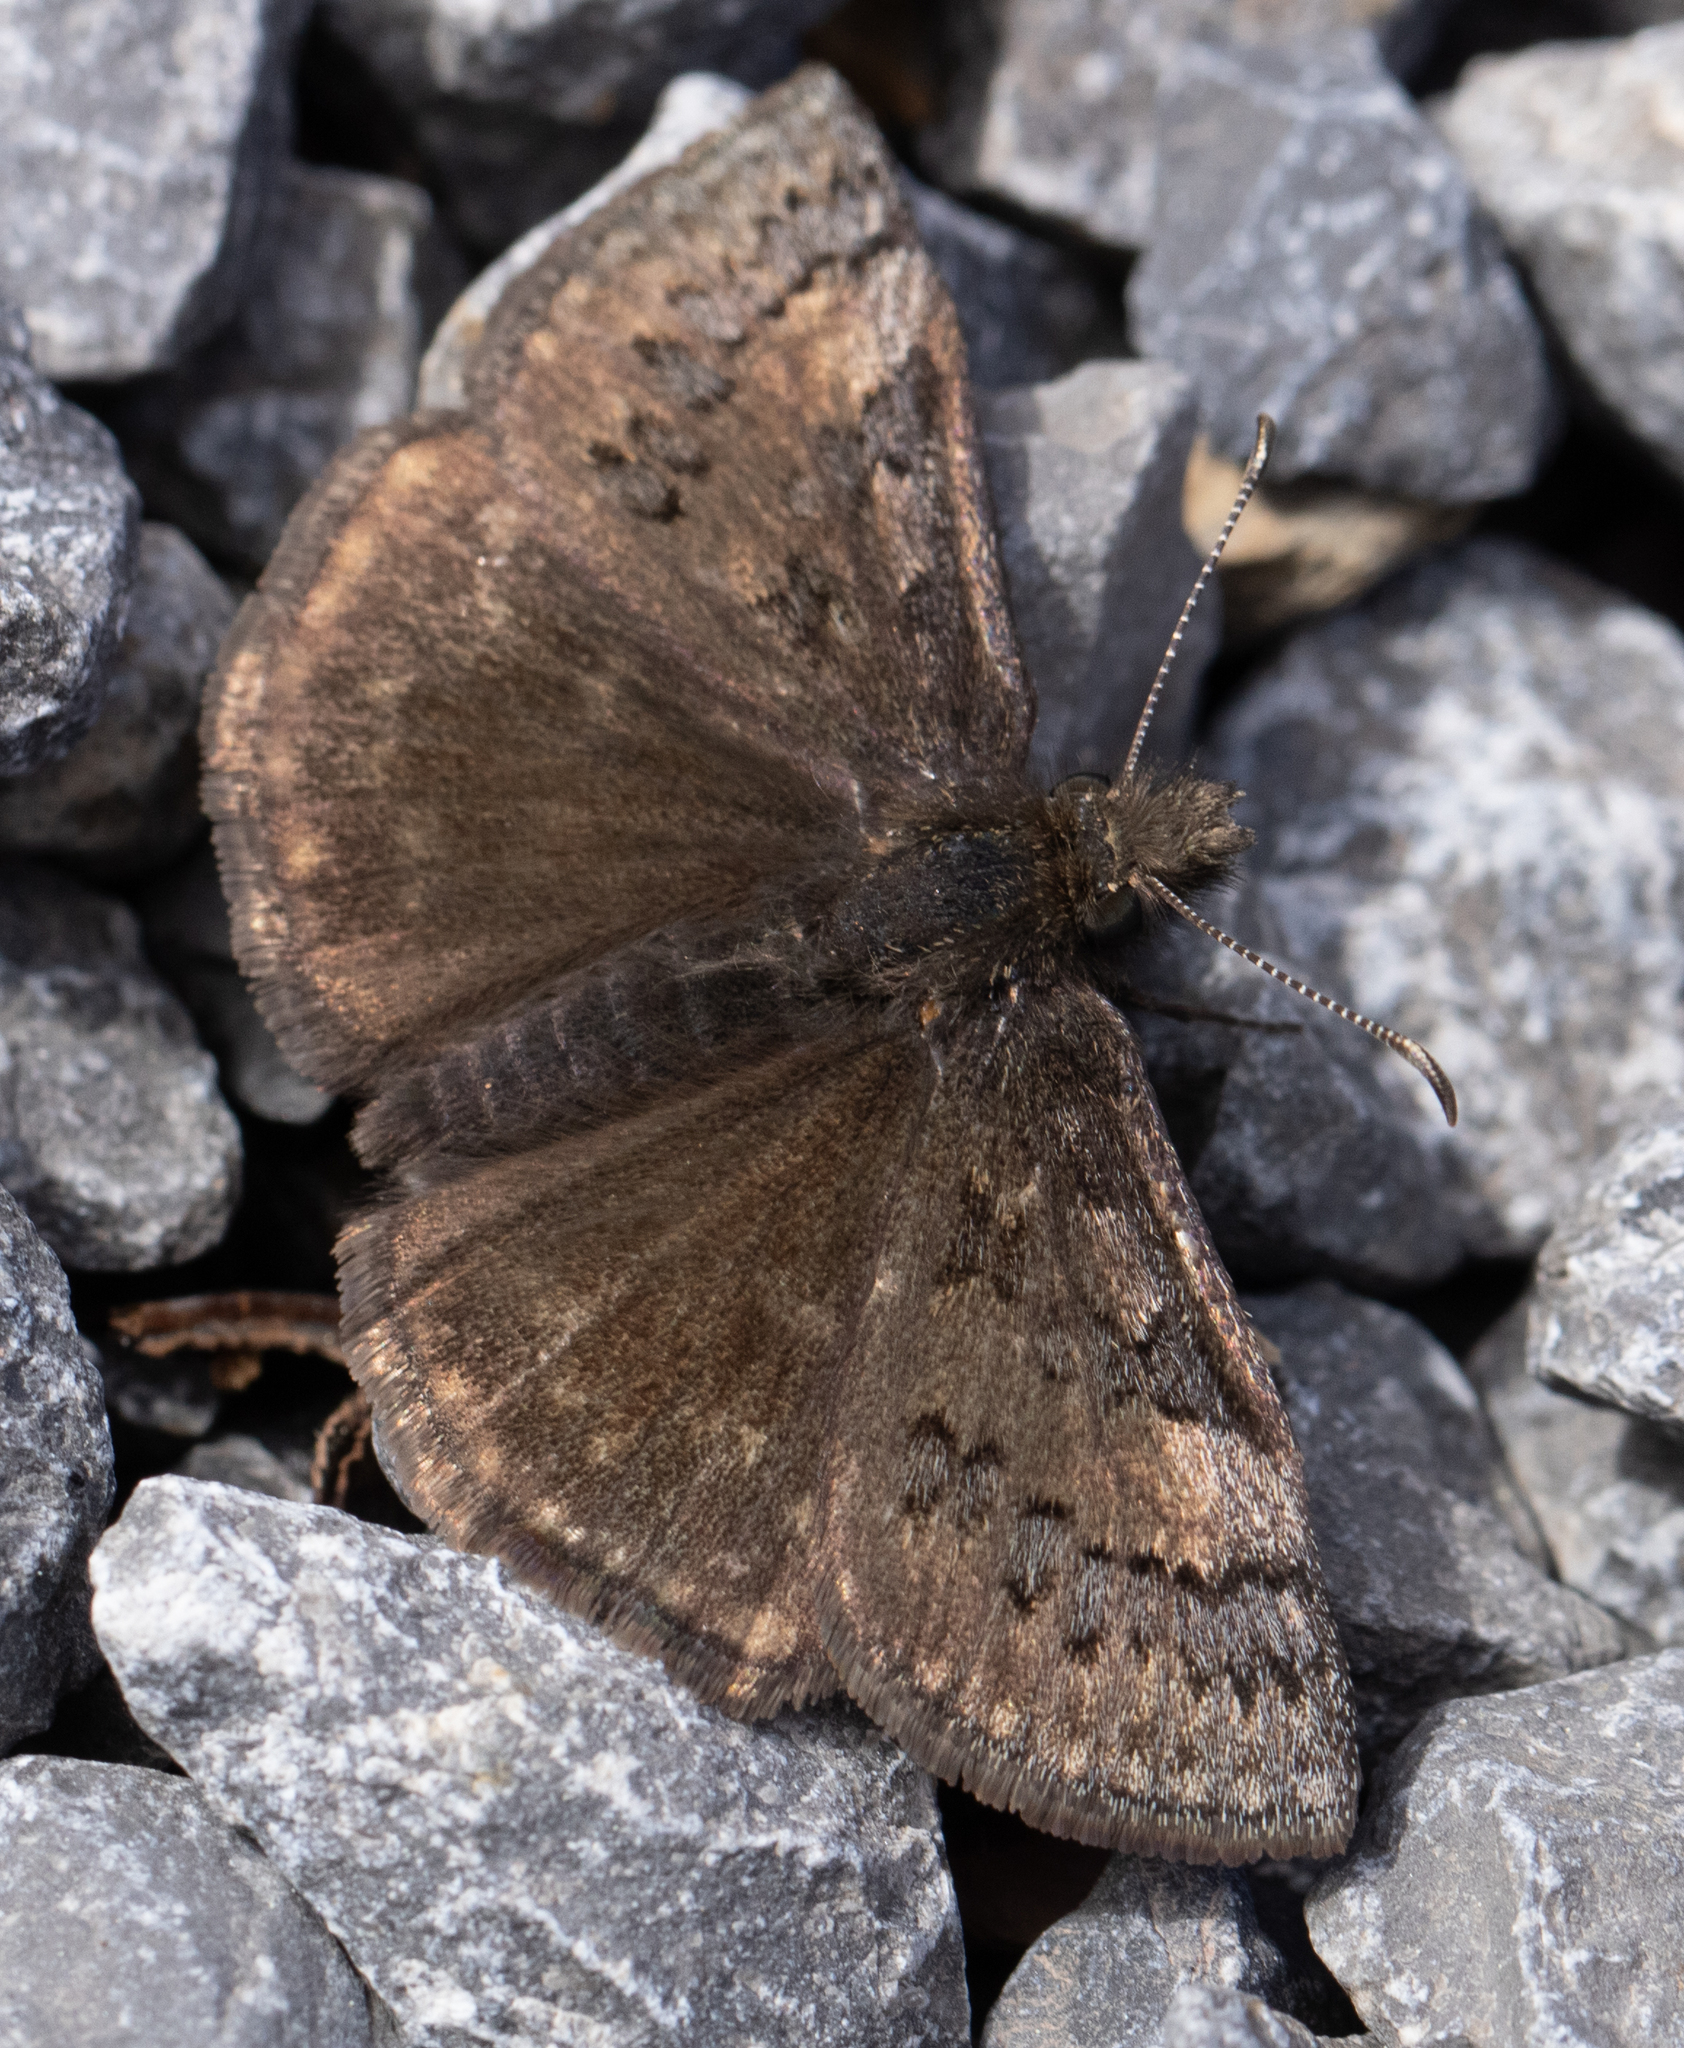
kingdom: Animalia
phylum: Arthropoda
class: Insecta
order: Lepidoptera
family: Hesperiidae
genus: Erynnis
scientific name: Erynnis brizo
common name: Sleepy duskywing
